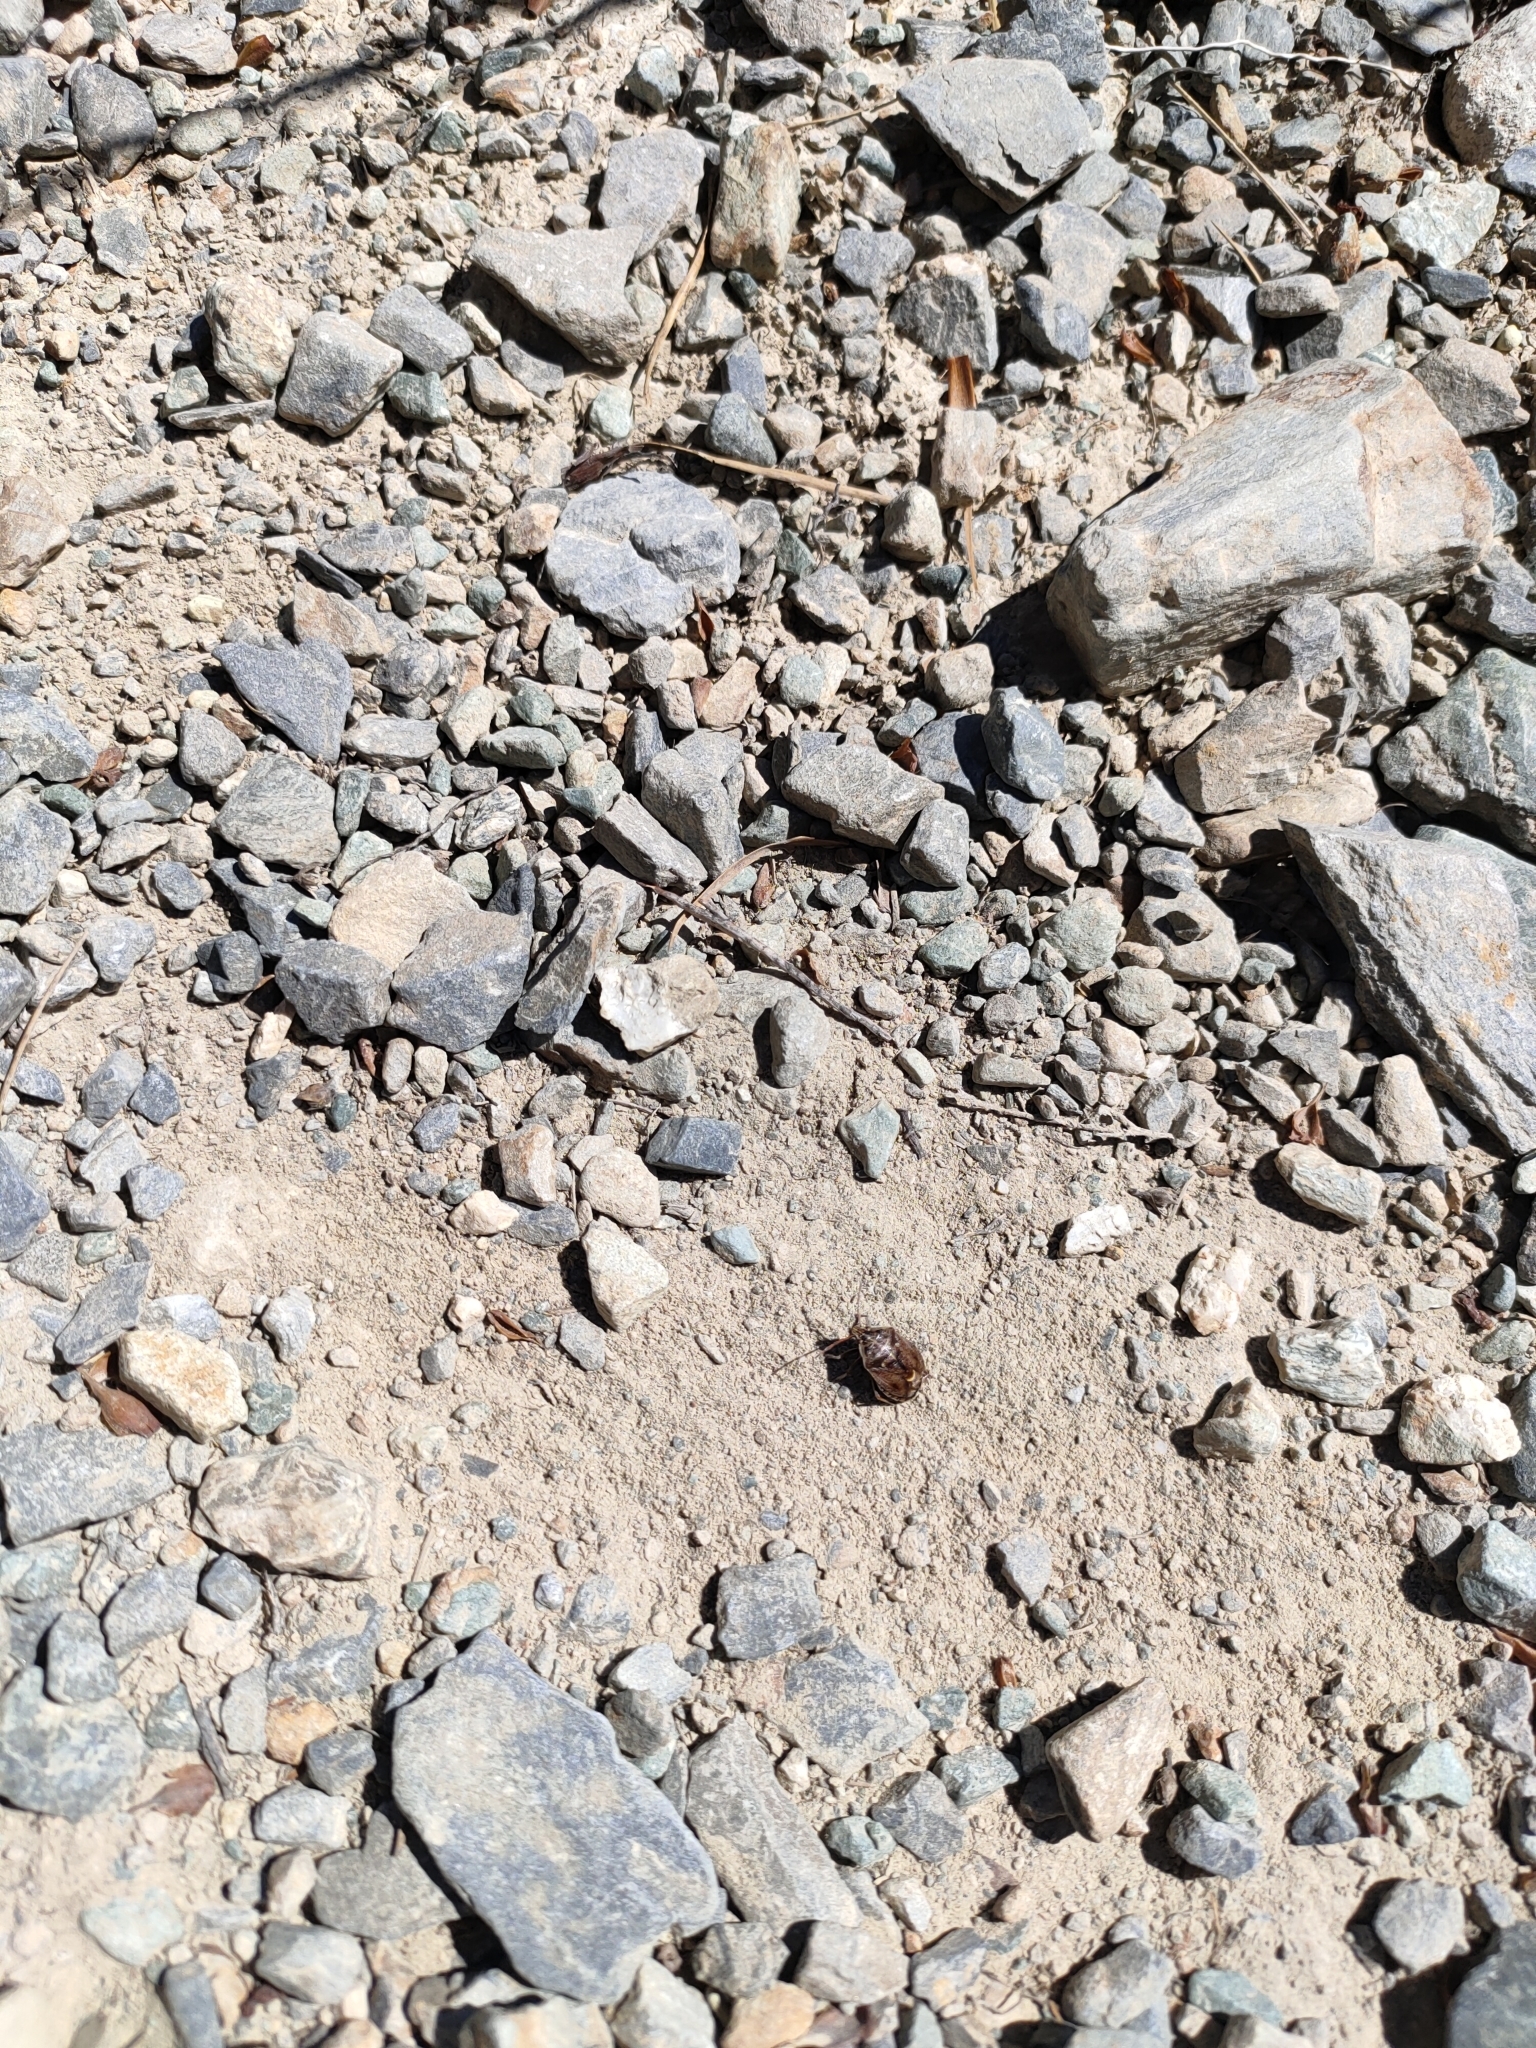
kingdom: Animalia
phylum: Arthropoda
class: Insecta
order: Hemiptera
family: Pentatomidae
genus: Cermatulus
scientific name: Cermatulus nasalis
